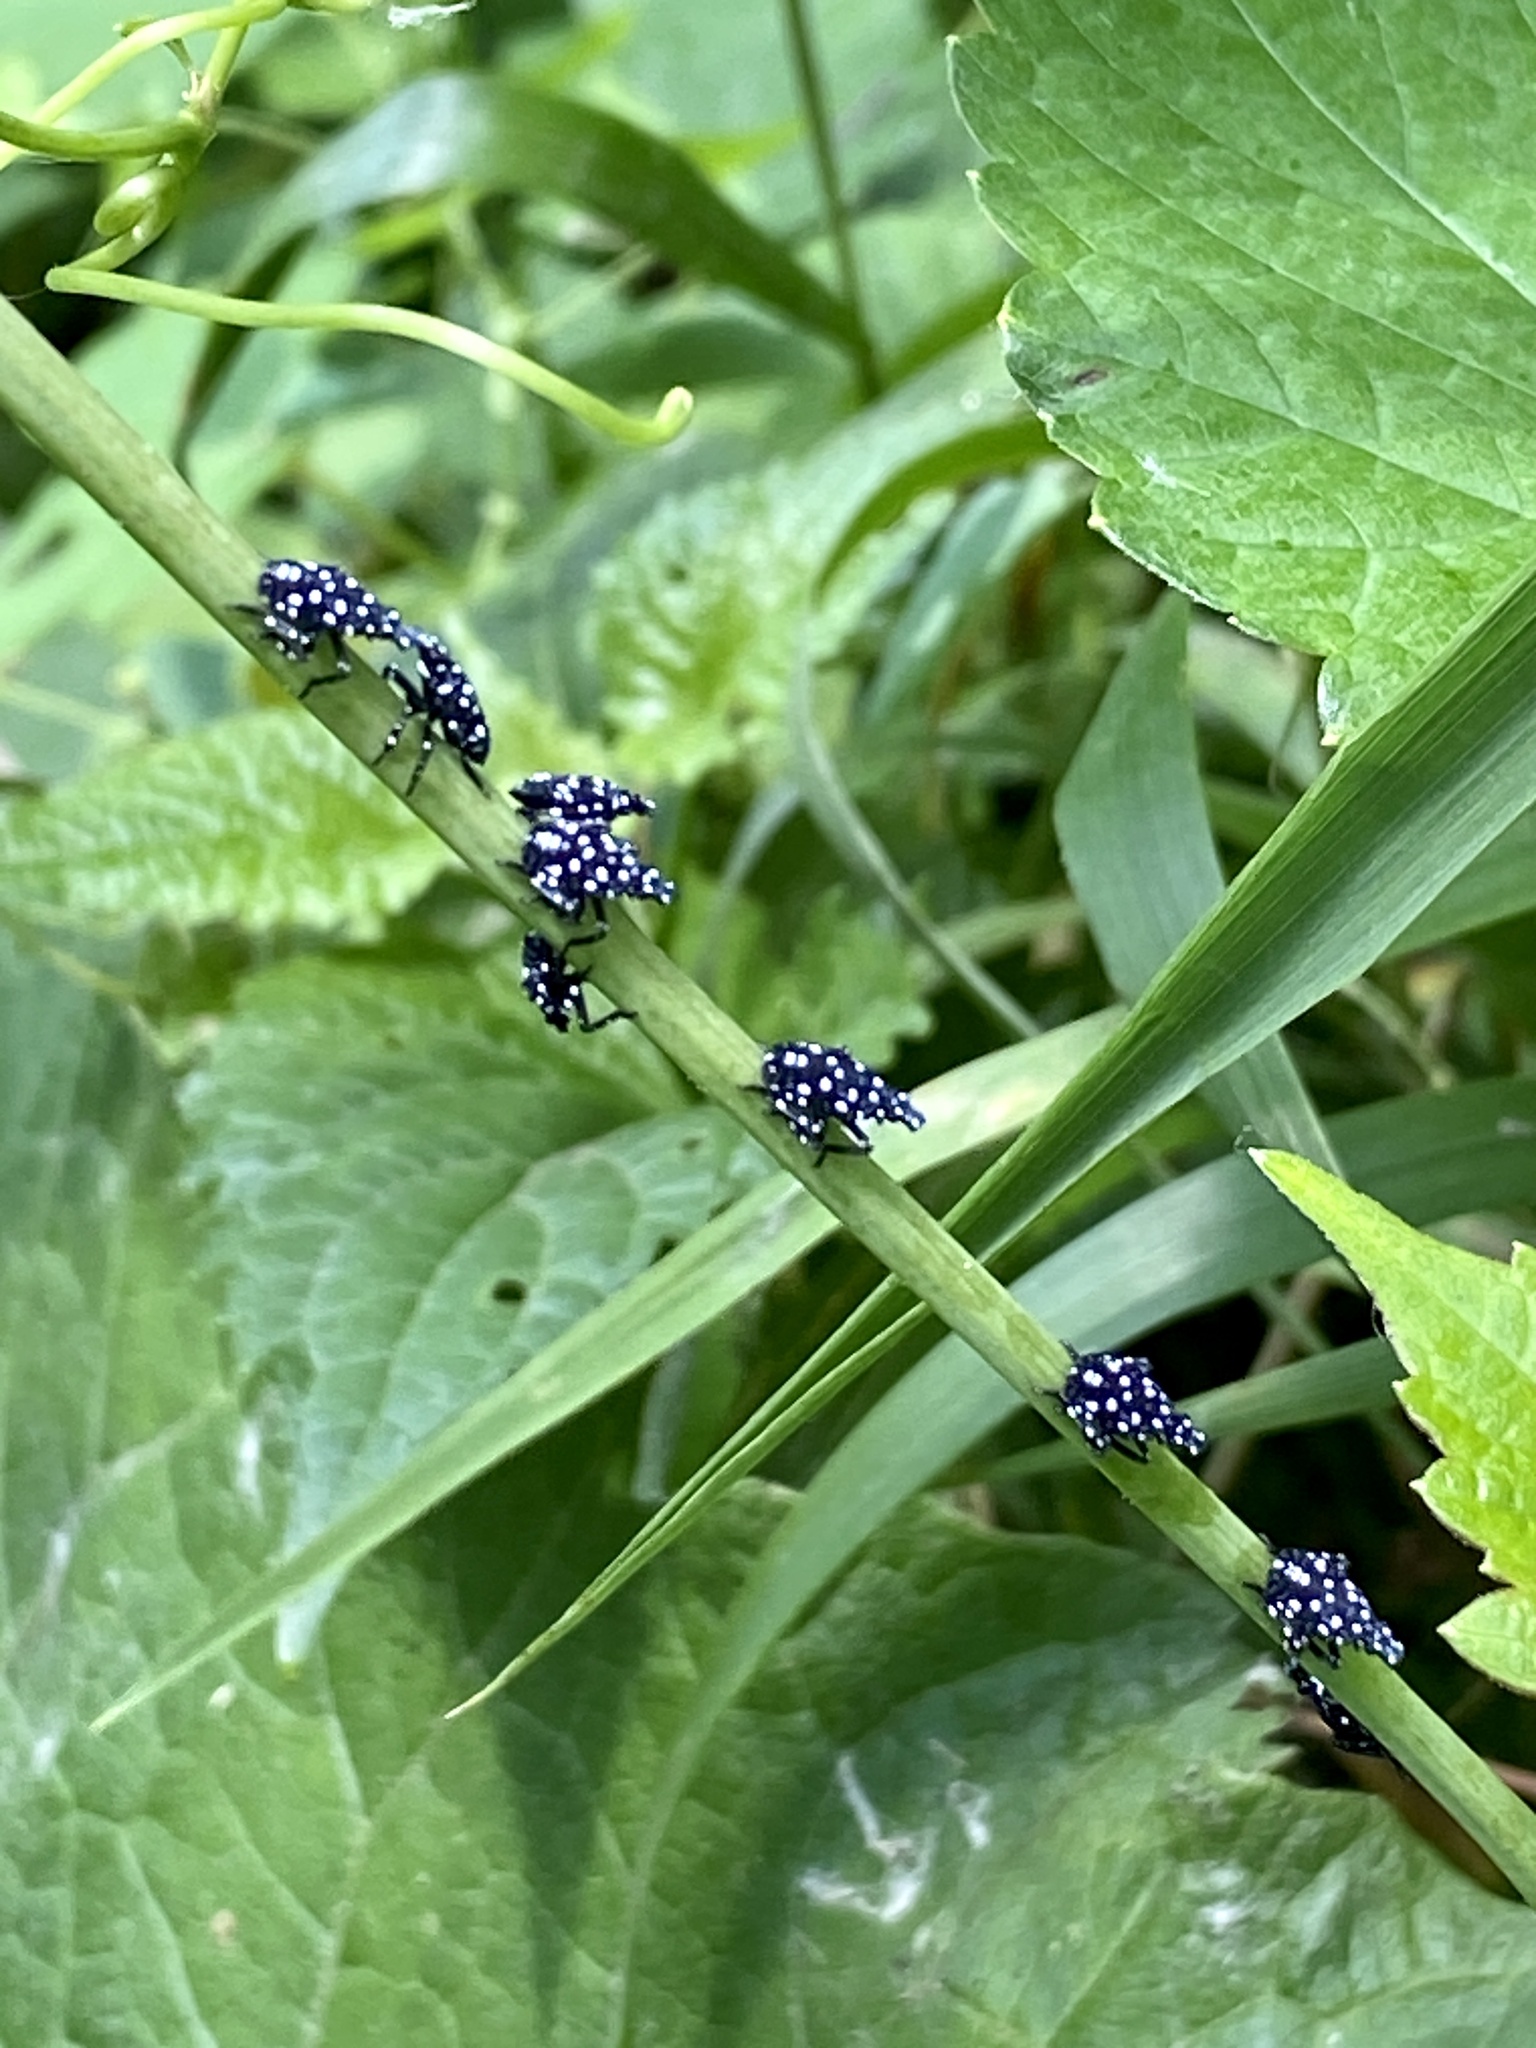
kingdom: Animalia
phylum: Arthropoda
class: Insecta
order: Hemiptera
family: Fulgoridae
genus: Lycorma
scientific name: Lycorma delicatula
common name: Spotted lanternfly
